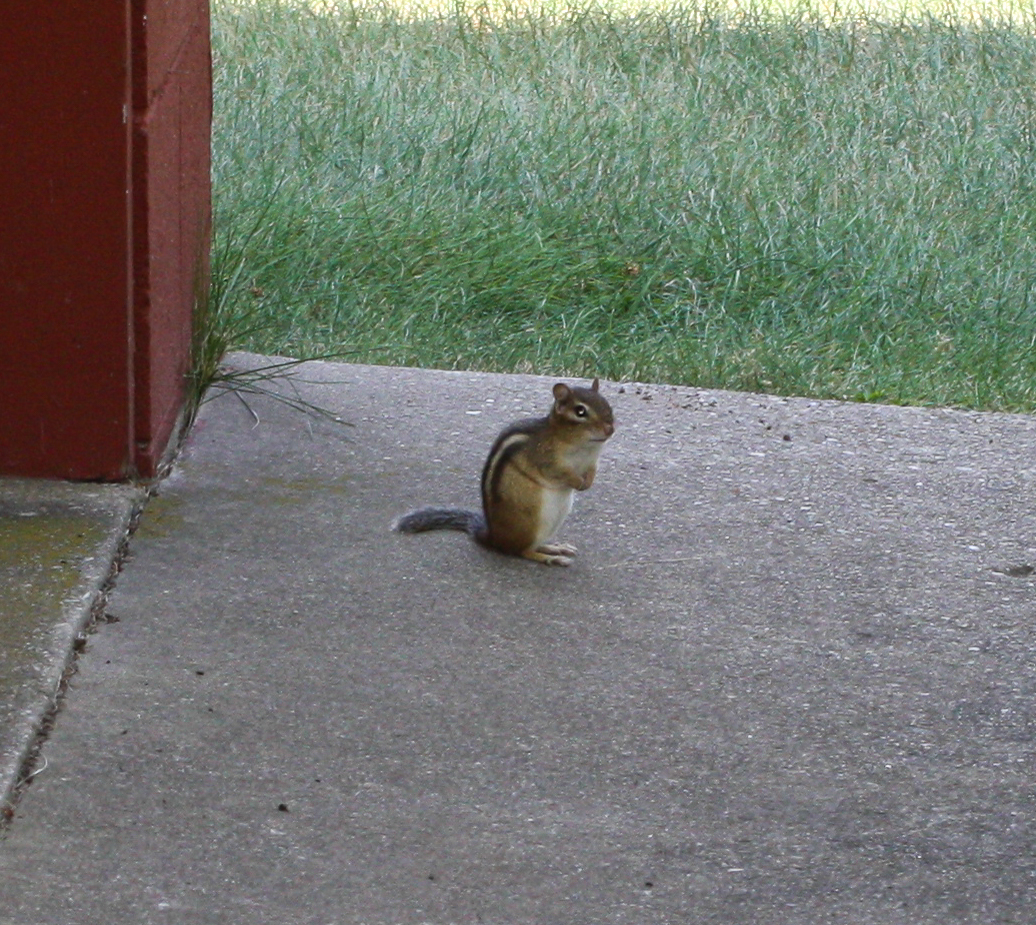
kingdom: Animalia
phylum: Chordata
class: Mammalia
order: Rodentia
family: Sciuridae
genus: Tamias
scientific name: Tamias striatus
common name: Eastern chipmunk
